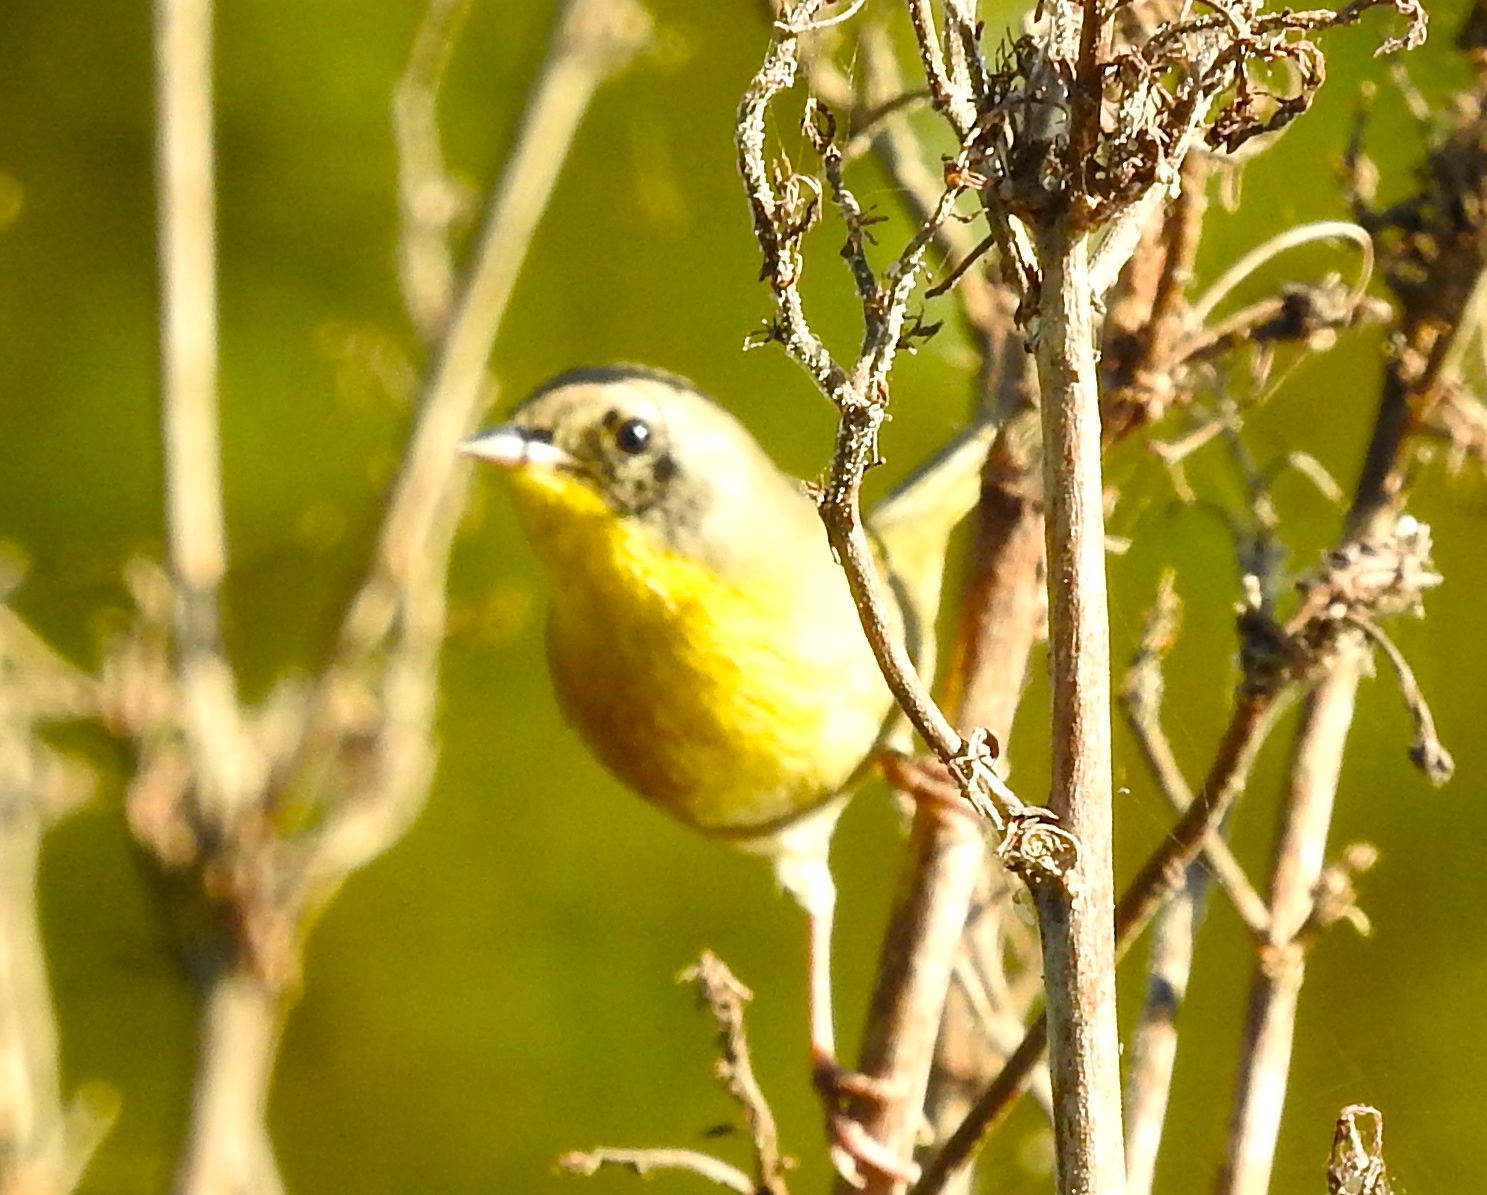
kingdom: Animalia
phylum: Chordata
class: Aves
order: Passeriformes
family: Parulidae
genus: Geothlypis
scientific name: Geothlypis trichas
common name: Common yellowthroat
